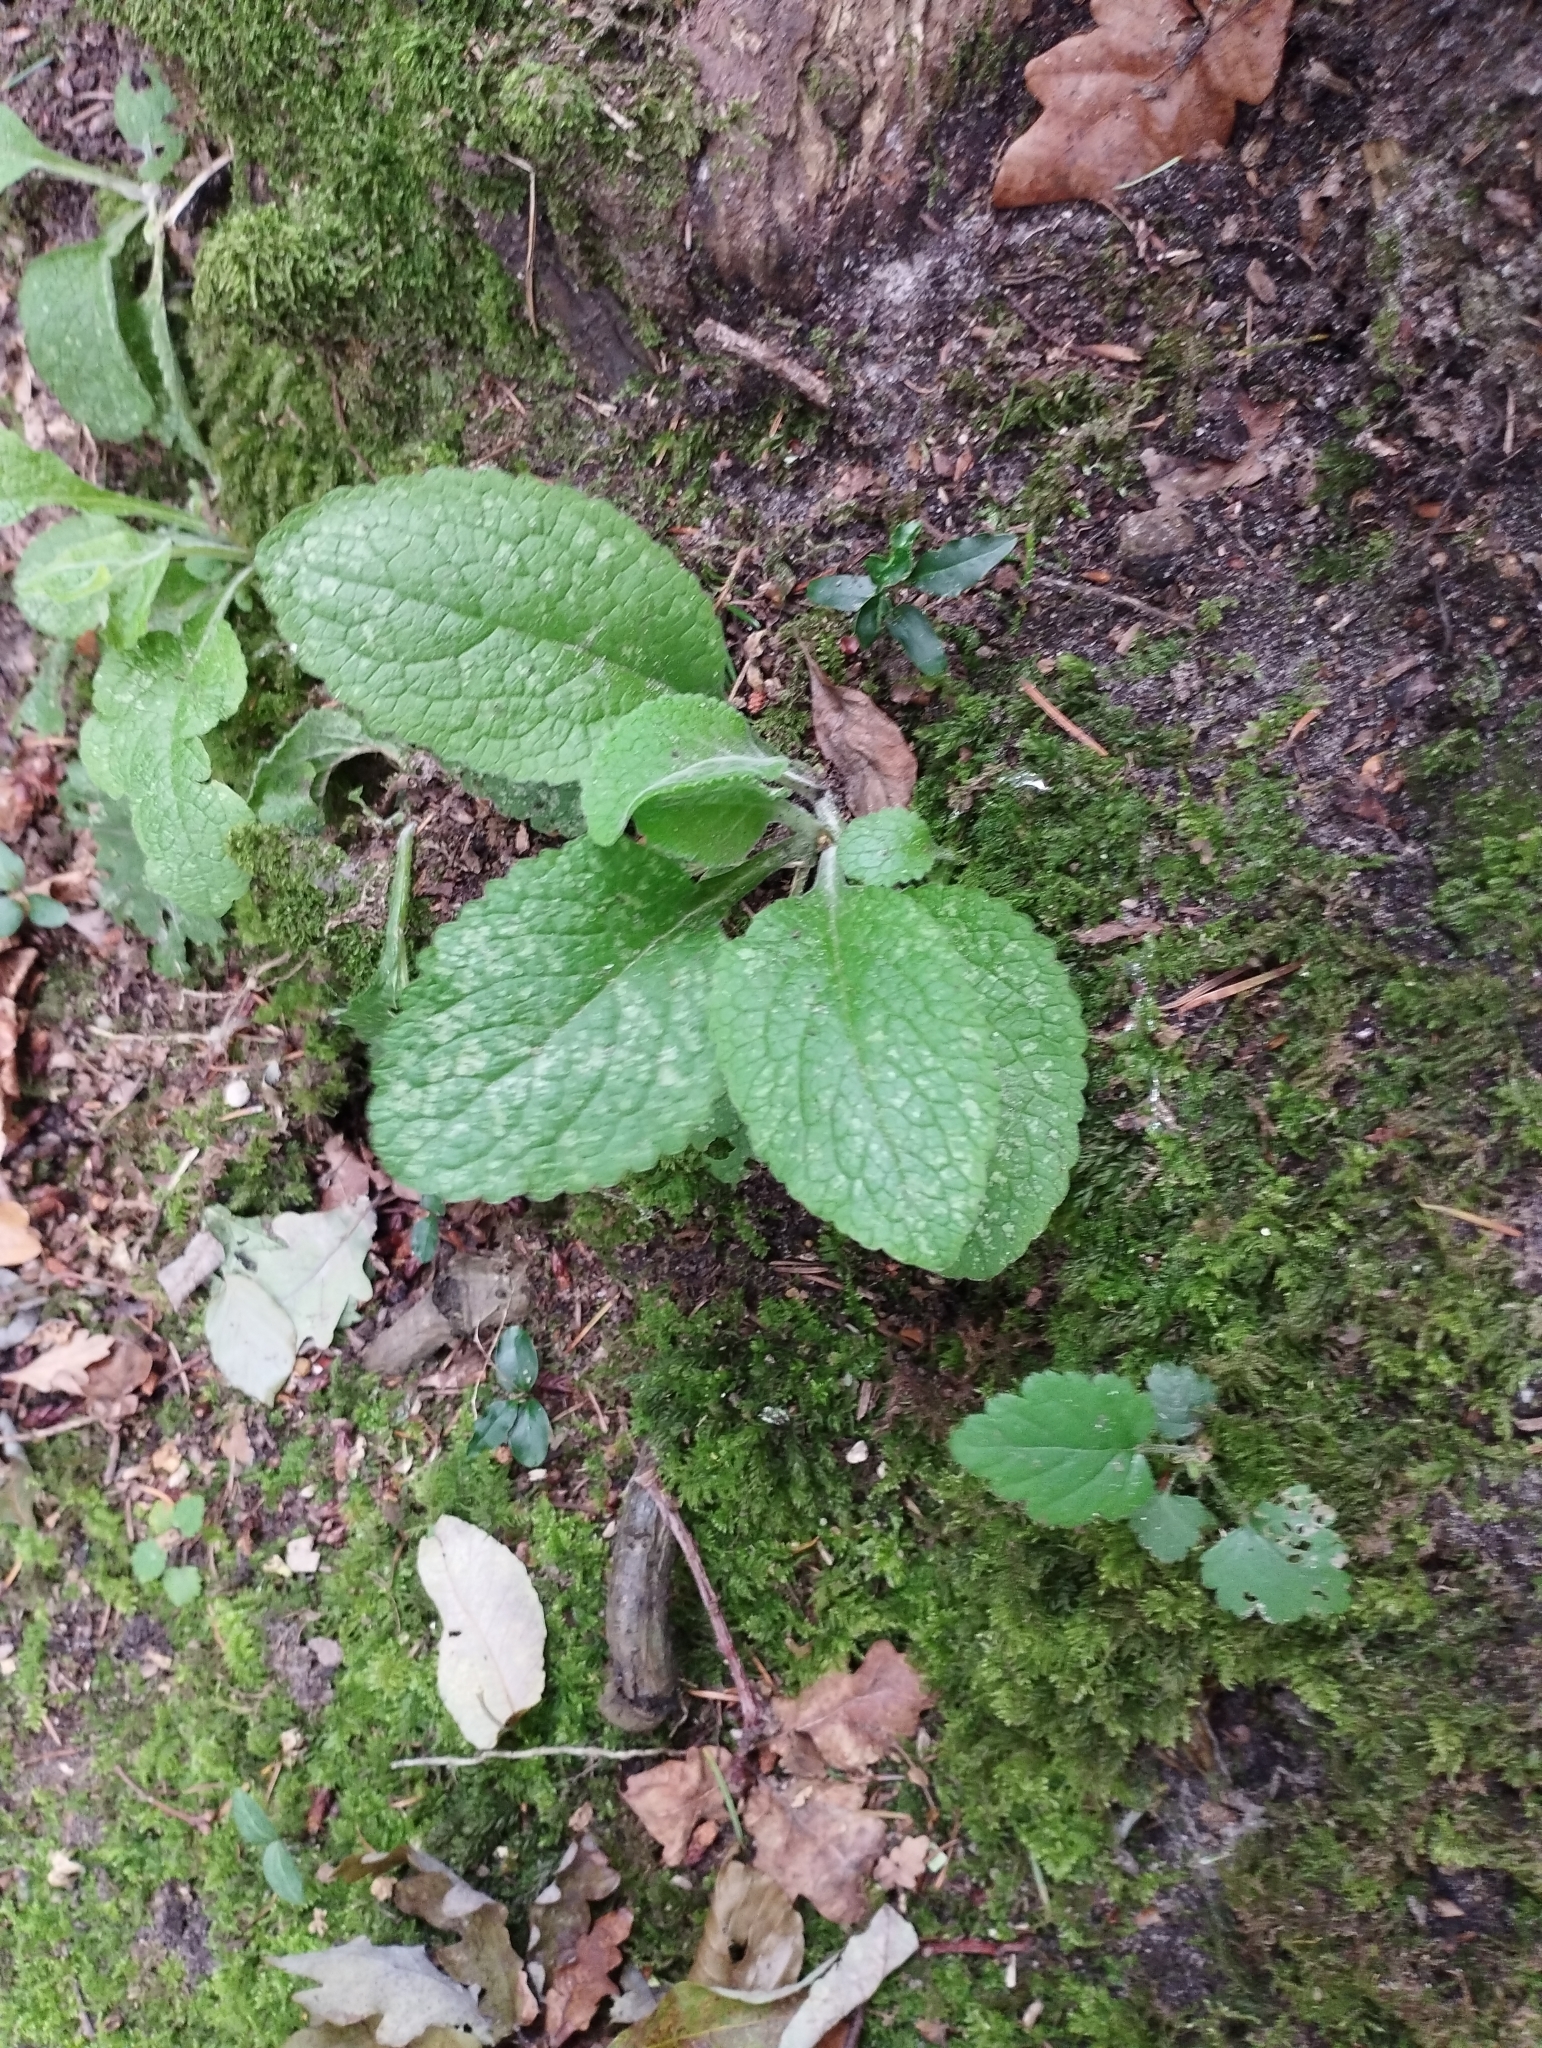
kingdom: Plantae
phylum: Tracheophyta
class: Magnoliopsida
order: Lamiales
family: Plantaginaceae
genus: Digitalis
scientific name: Digitalis purpurea
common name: Foxglove
